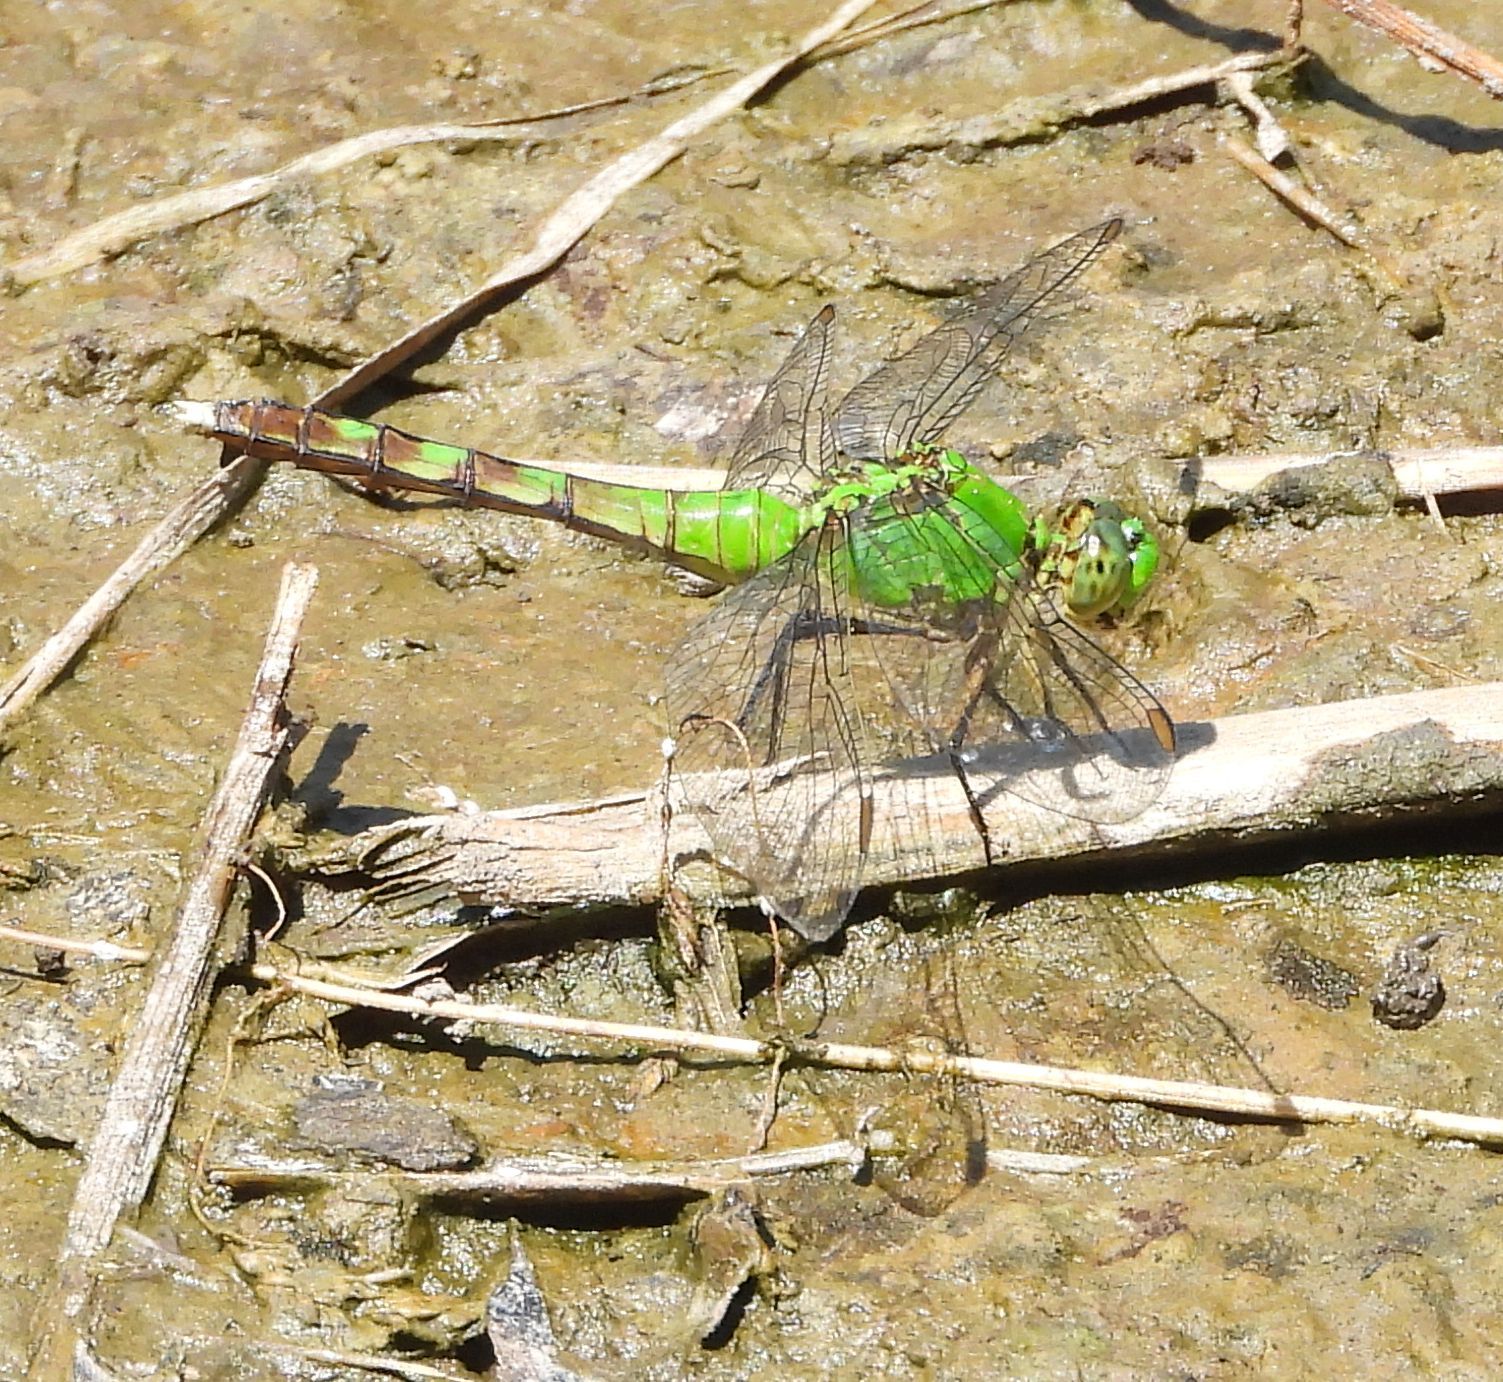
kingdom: Animalia
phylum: Arthropoda
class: Insecta
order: Odonata
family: Libellulidae
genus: Erythemis
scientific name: Erythemis simplicicollis
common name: Eastern pondhawk
